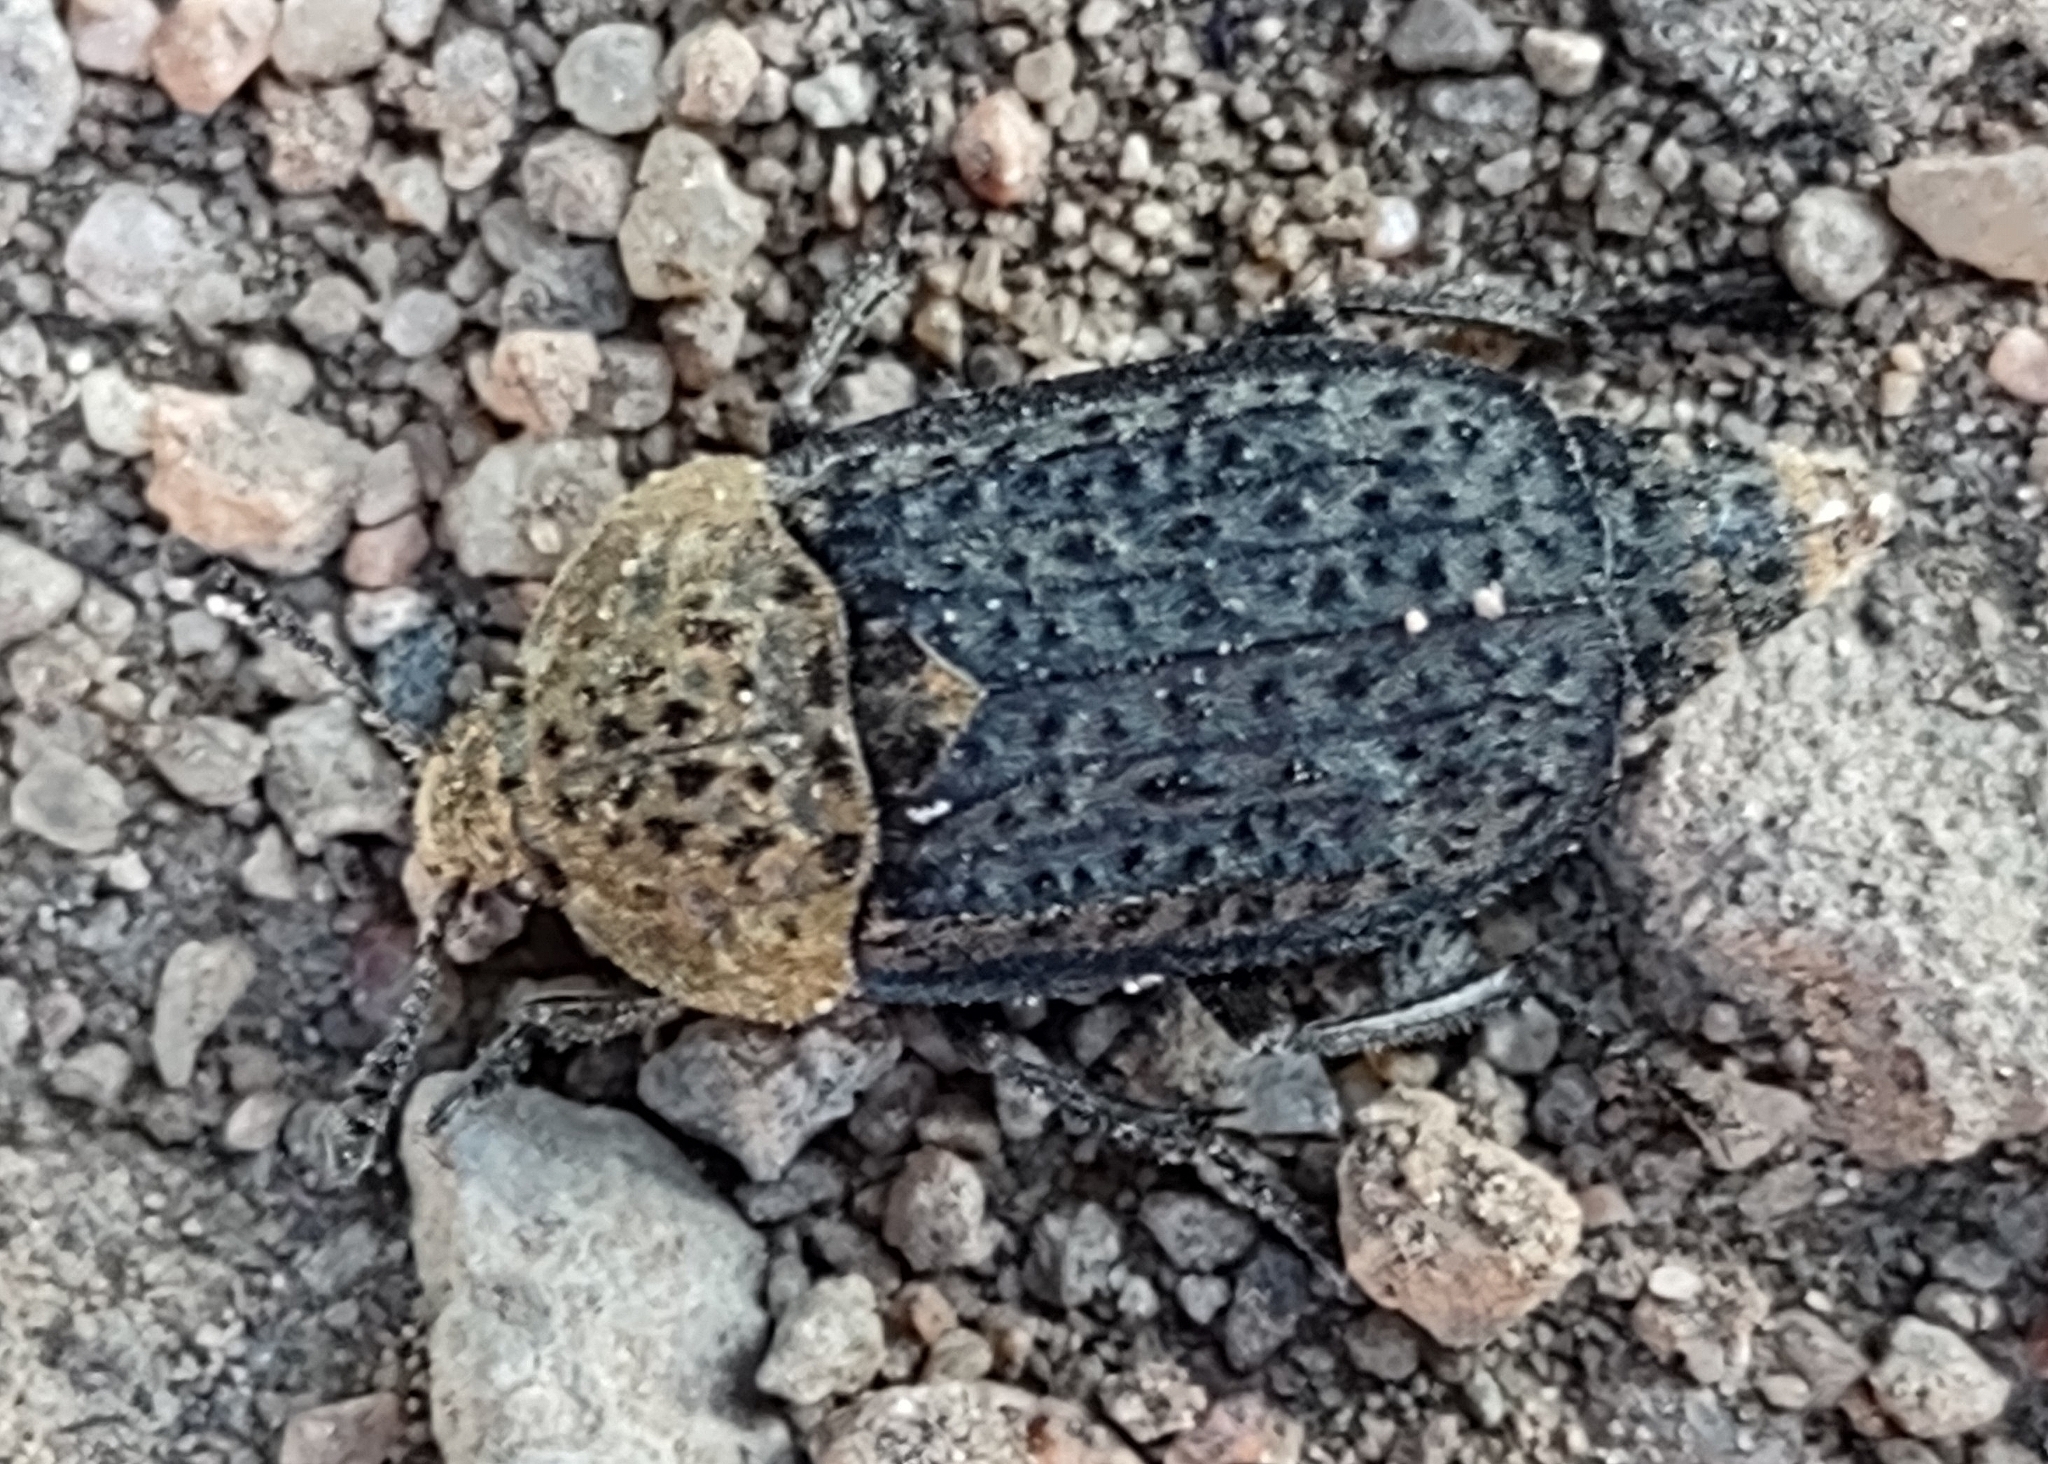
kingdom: Animalia
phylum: Arthropoda
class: Insecta
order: Coleoptera
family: Staphylinidae
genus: Thanatophilus
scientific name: Thanatophilus lapponicus
